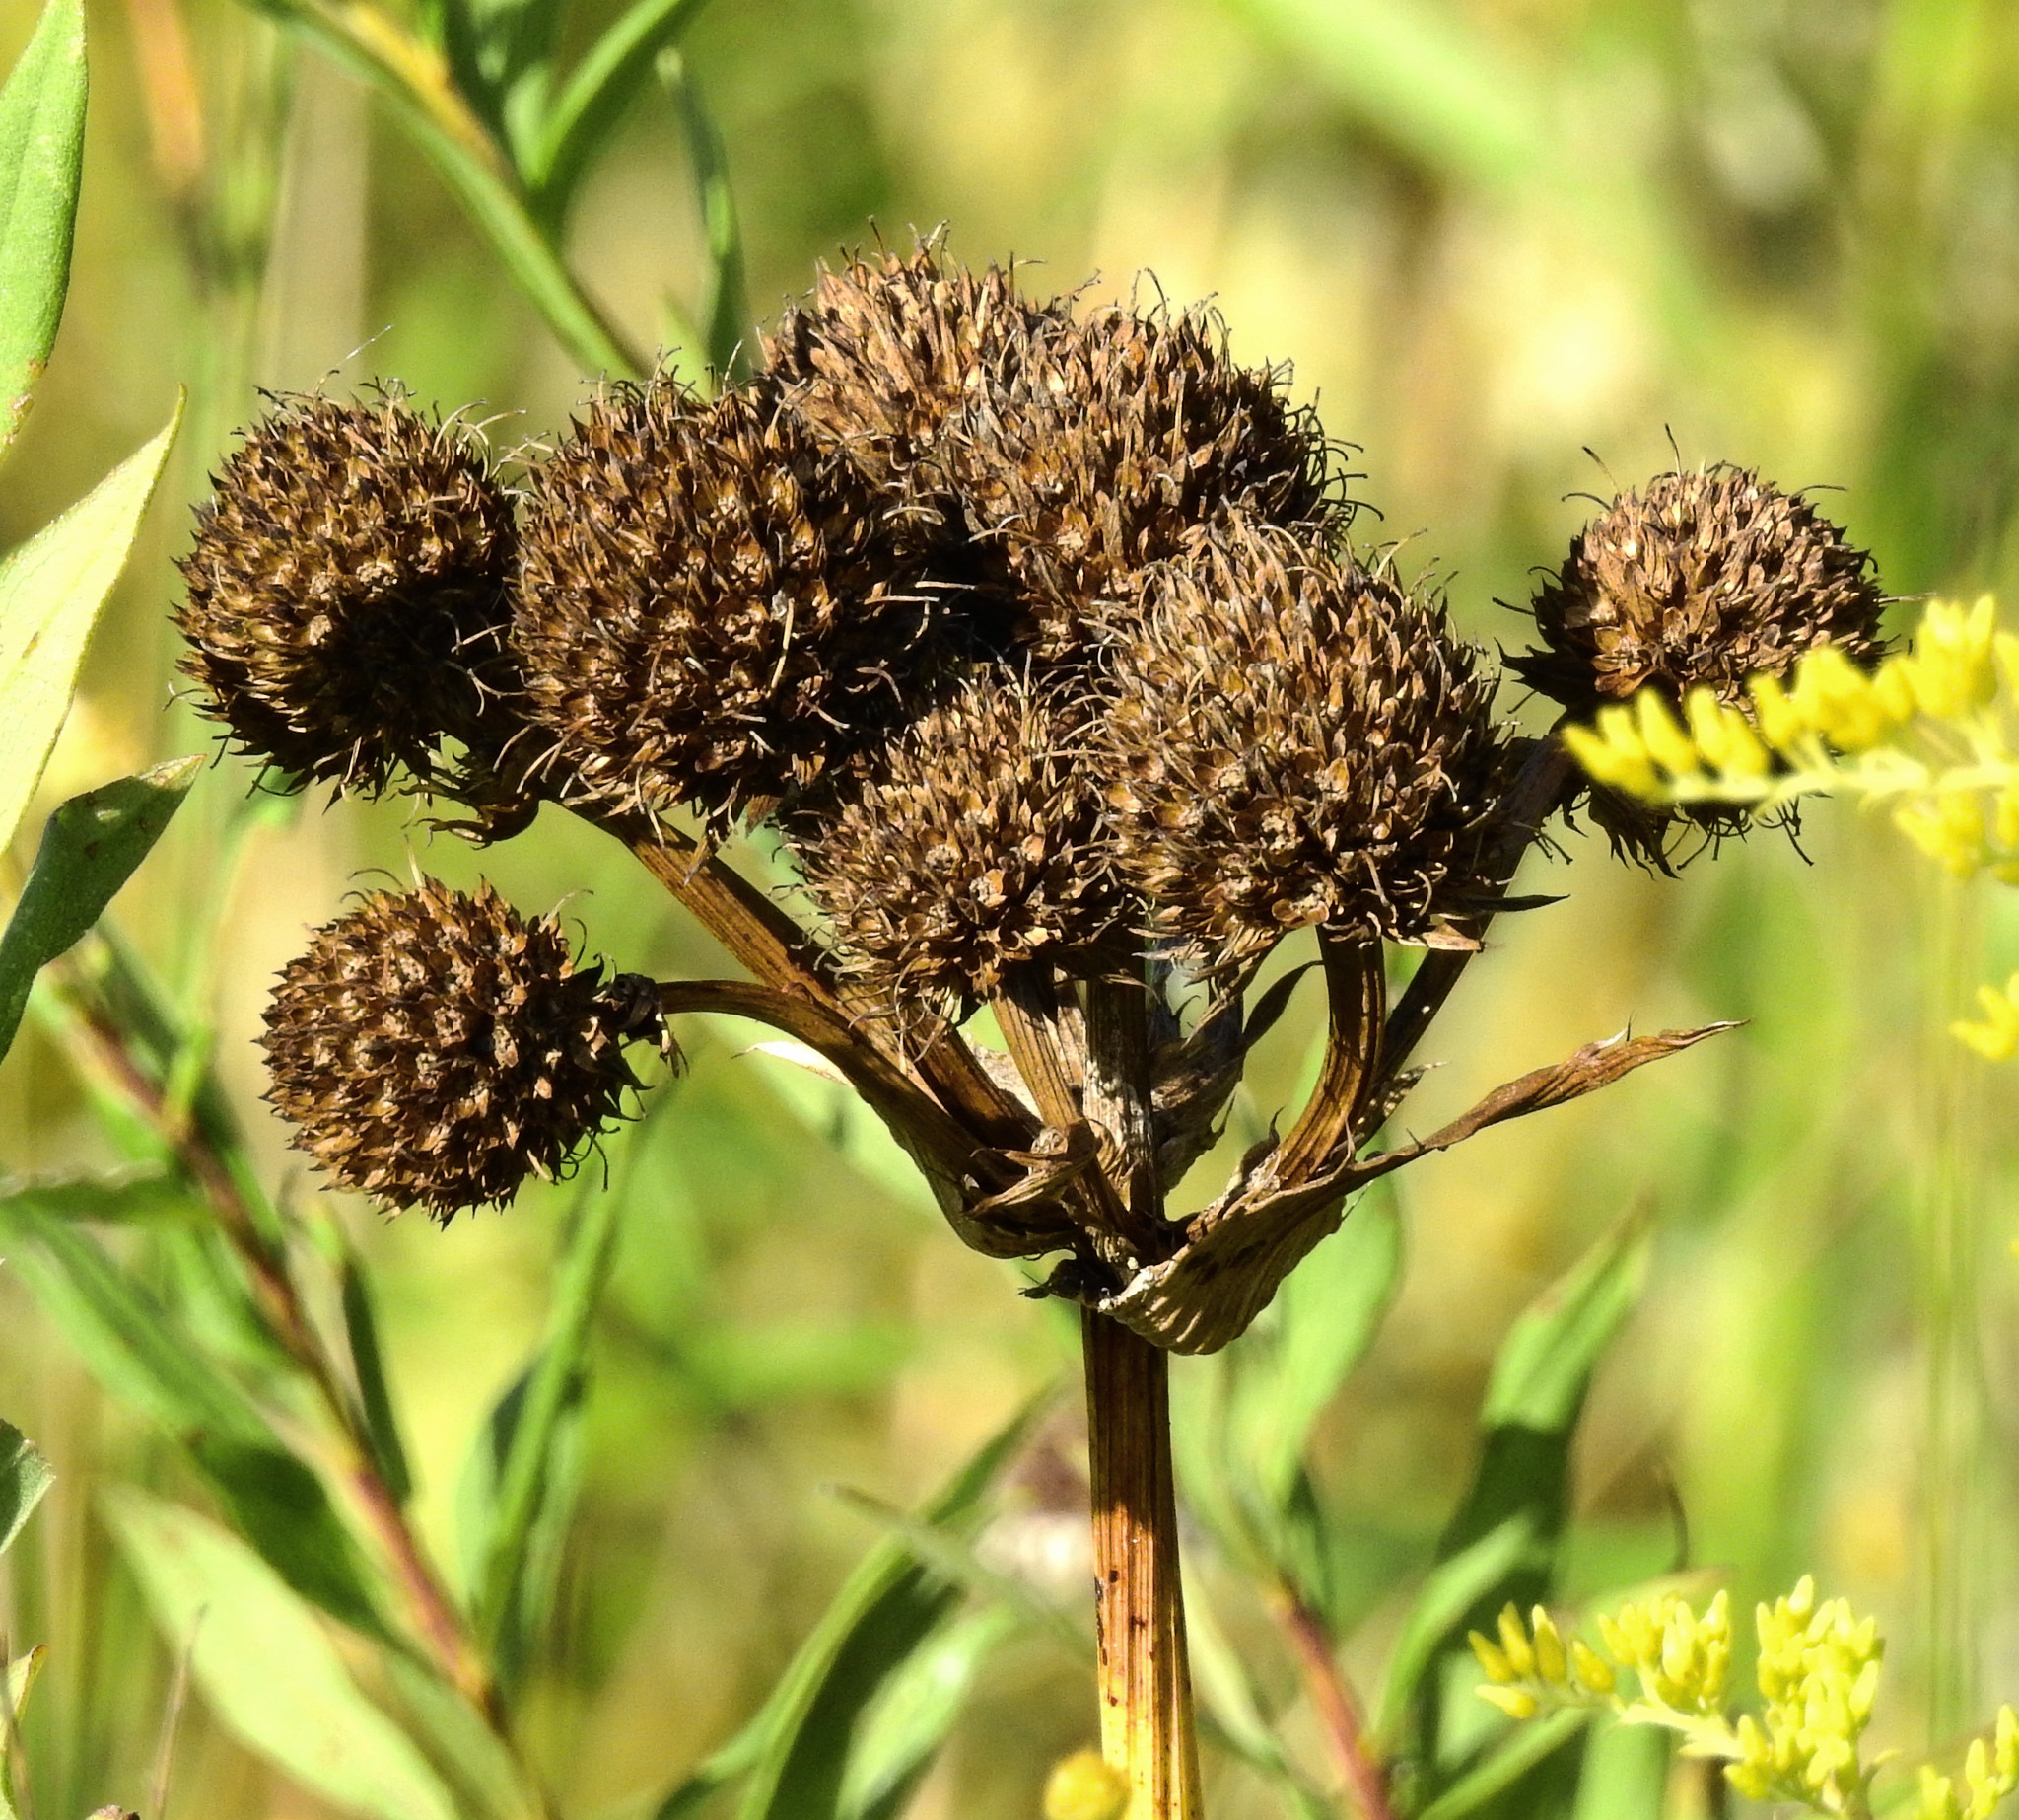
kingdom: Plantae
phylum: Tracheophyta
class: Magnoliopsida
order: Apiales
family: Apiaceae
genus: Eryngium
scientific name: Eryngium yuccifolium
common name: Button eryngo
